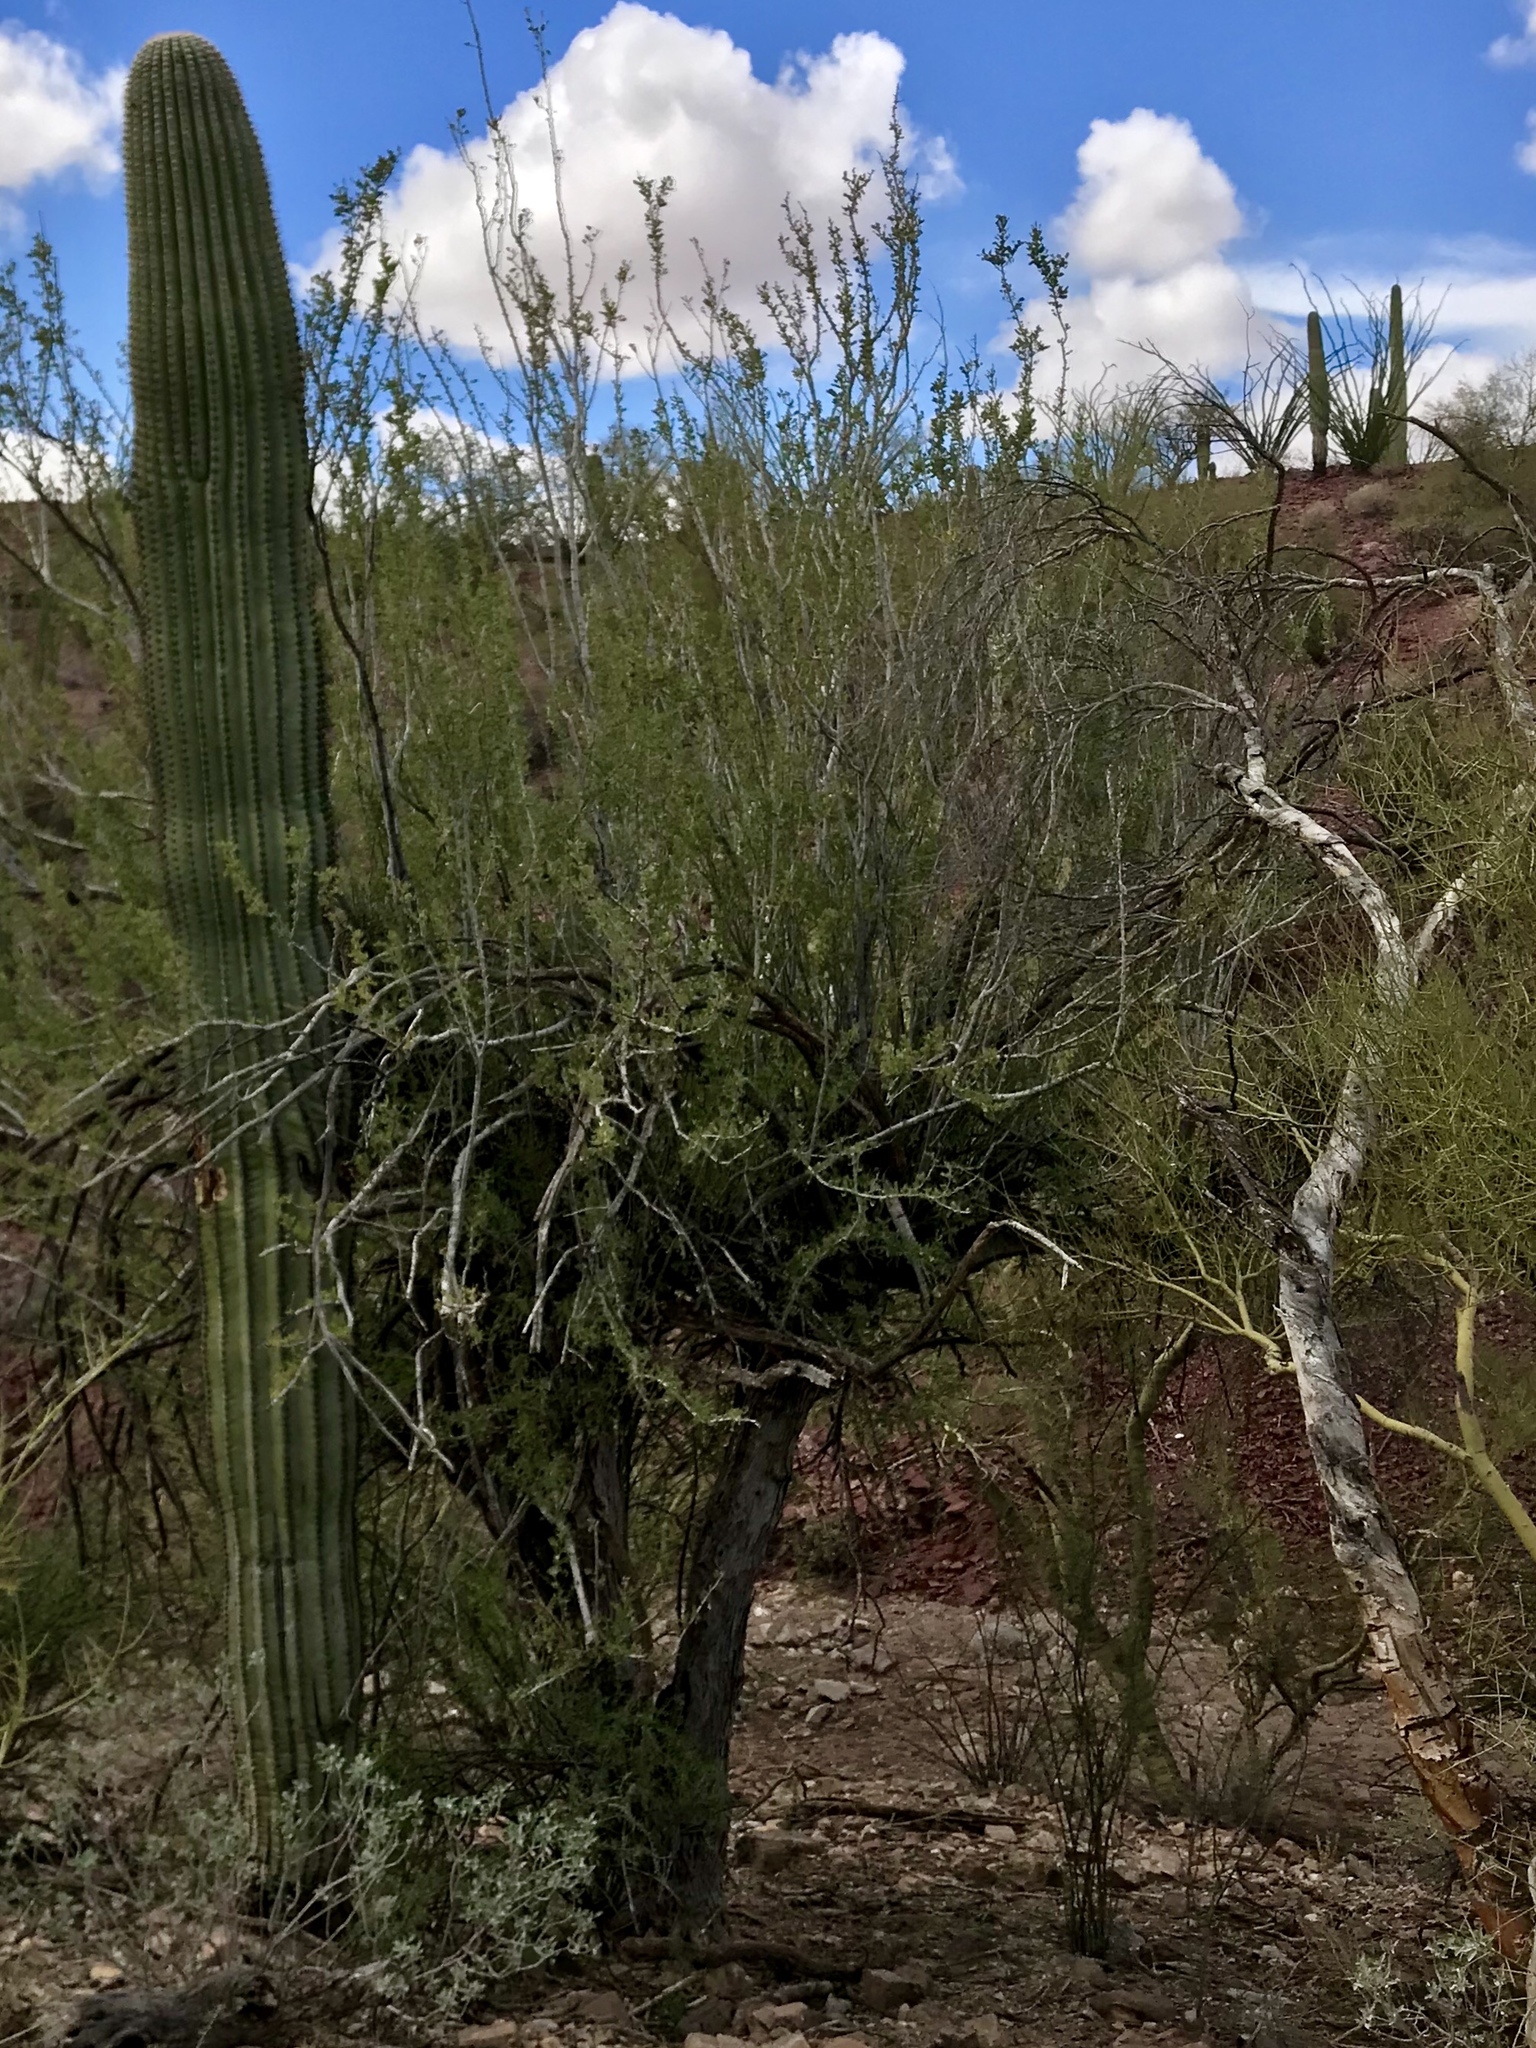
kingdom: Plantae
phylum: Tracheophyta
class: Magnoliopsida
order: Fabales
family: Fabaceae
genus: Olneya
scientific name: Olneya tesota
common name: Desert ironwood
